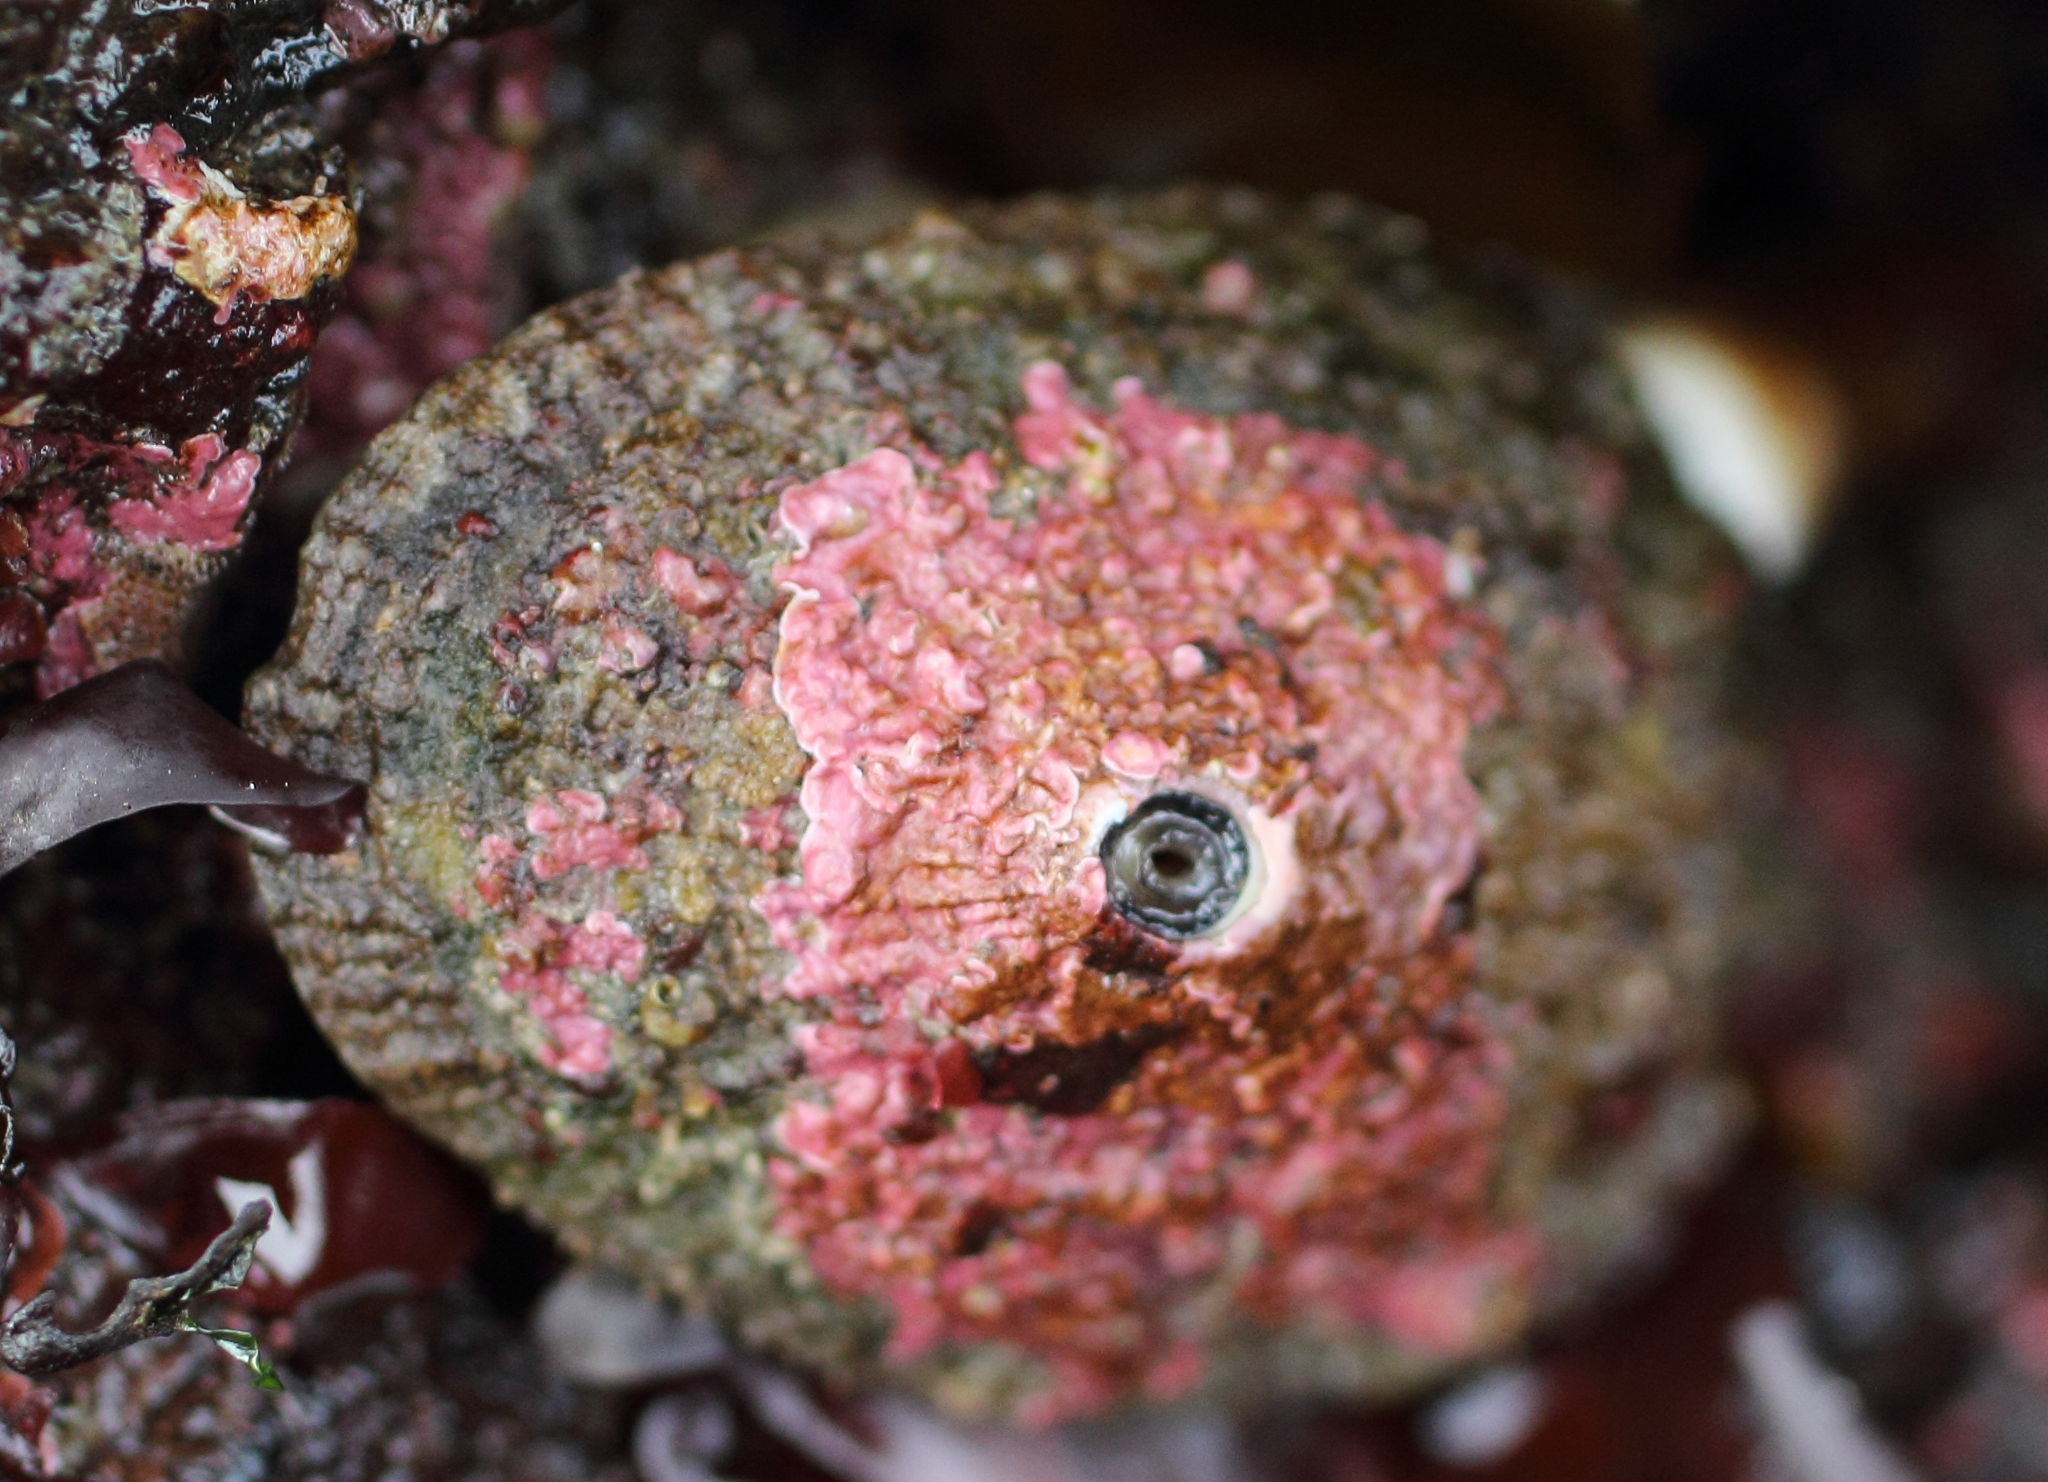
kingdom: Animalia
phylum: Mollusca
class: Gastropoda
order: Lepetellida
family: Fissurellidae
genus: Diodora
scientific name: Diodora aspera
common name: Rough keyhole limpet
